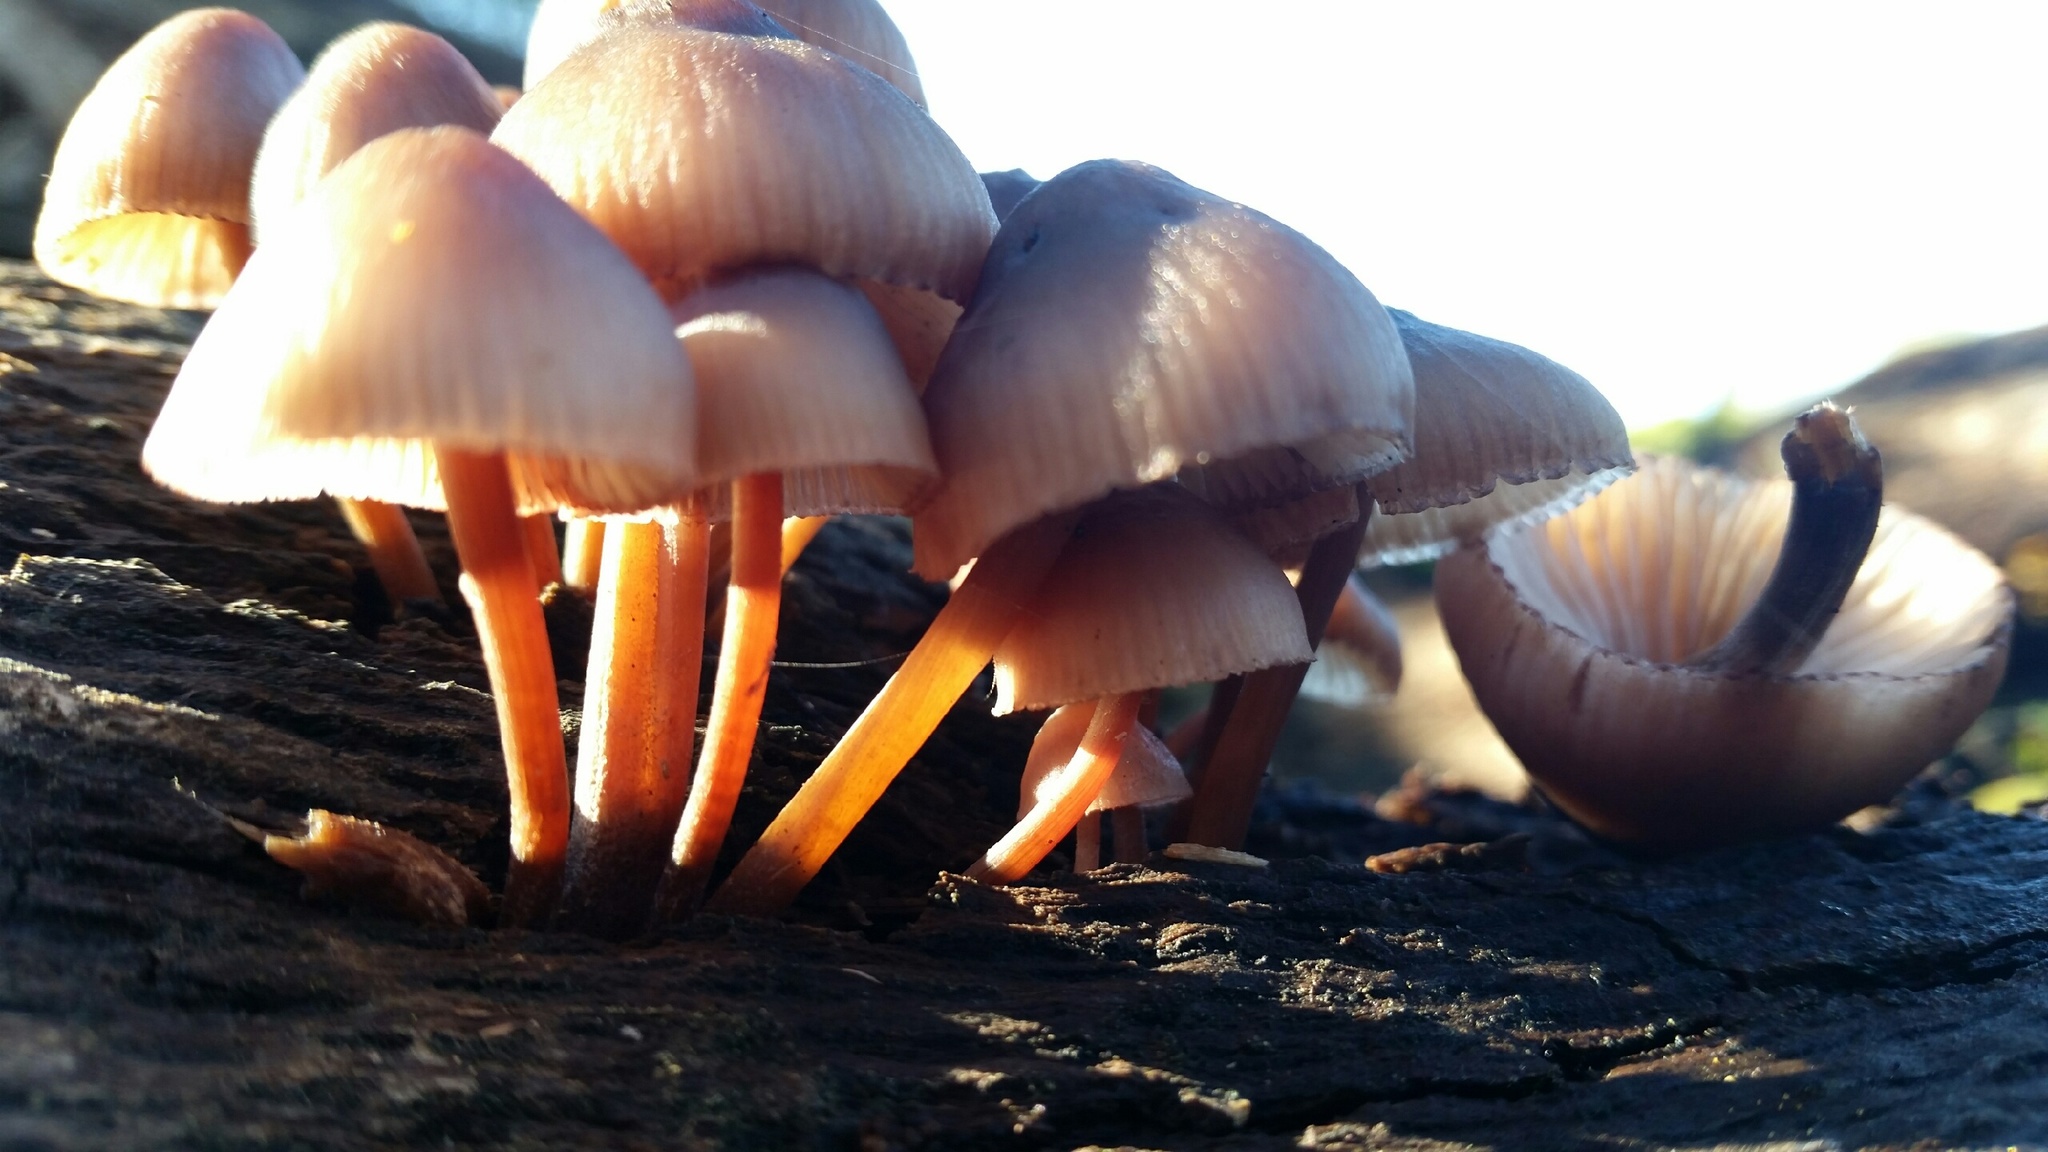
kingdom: Fungi
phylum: Basidiomycota
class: Agaricomycetes
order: Agaricales
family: Mycenaceae
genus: Mycena
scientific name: Mycena haematopus
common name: Burgundydrop bonnet
